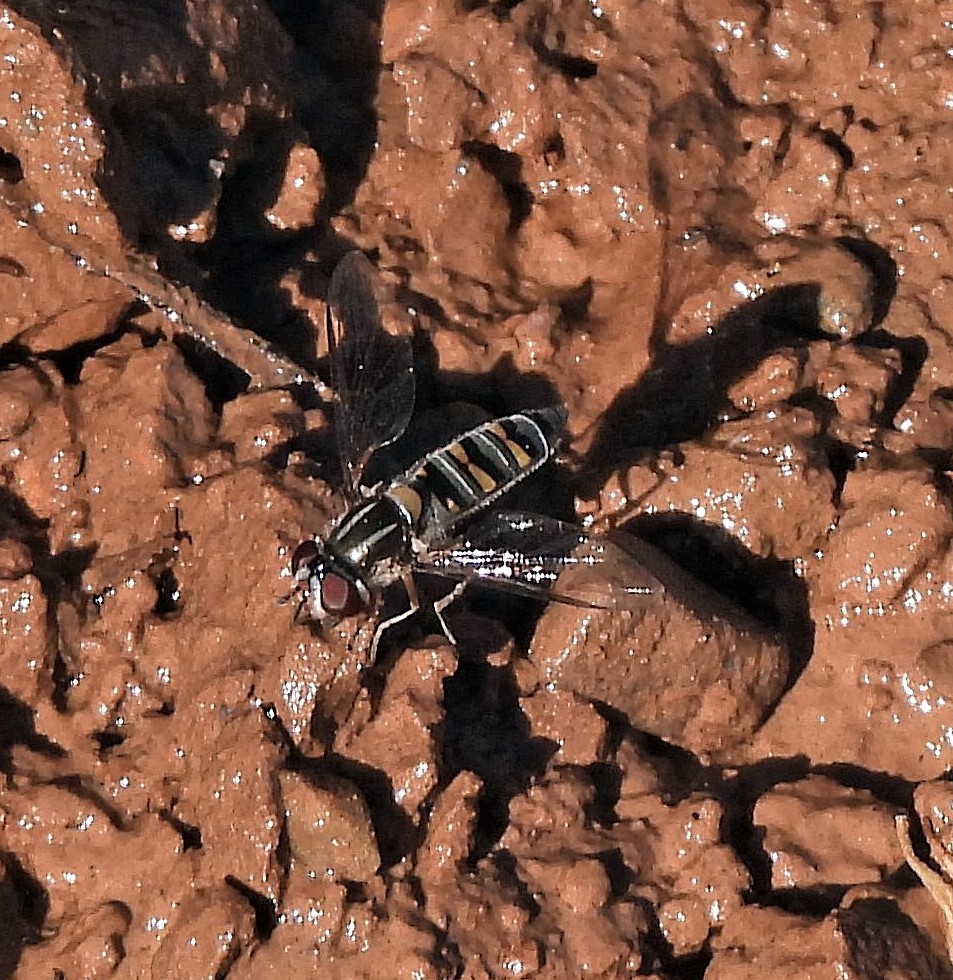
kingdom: Animalia
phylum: Arthropoda
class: Insecta
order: Diptera
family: Syrphidae
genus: Pseudoscaeva
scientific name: Pseudoscaeva meridionalis
